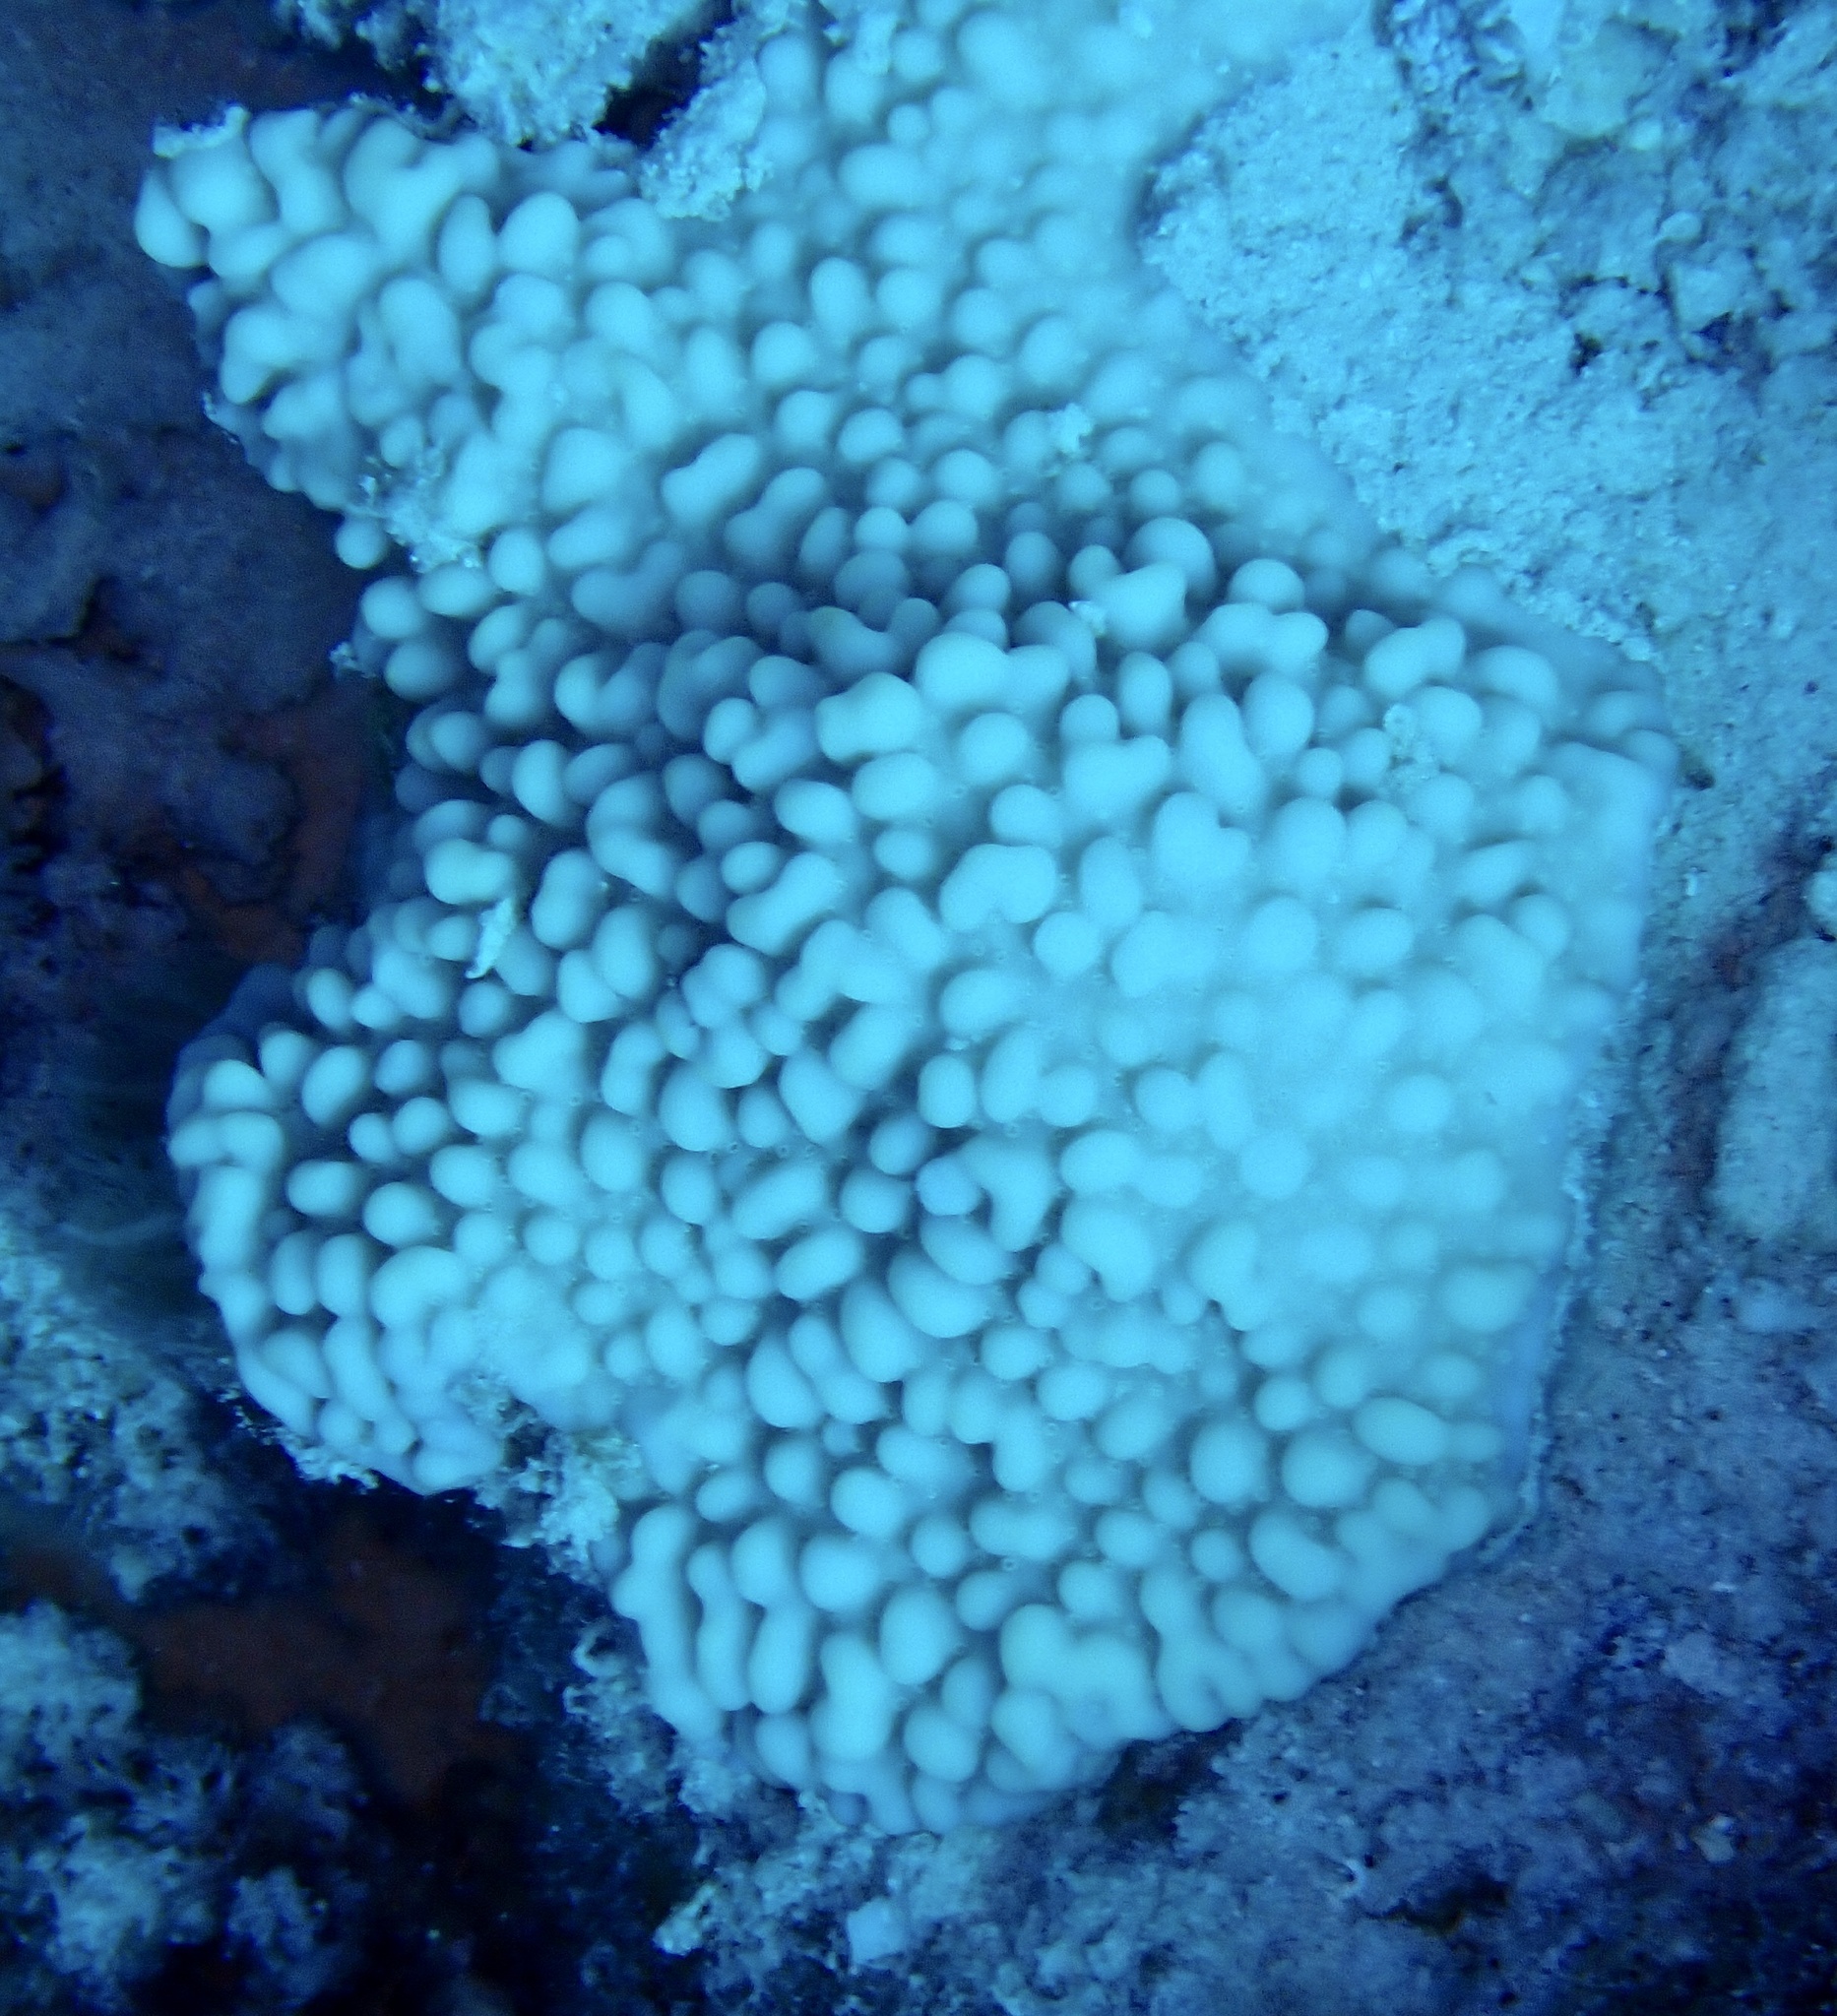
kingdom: Animalia
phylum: Cnidaria
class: Anthozoa
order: Scleractinia
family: Acroporidae
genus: Montipora
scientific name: Montipora danae
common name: Pore coral
